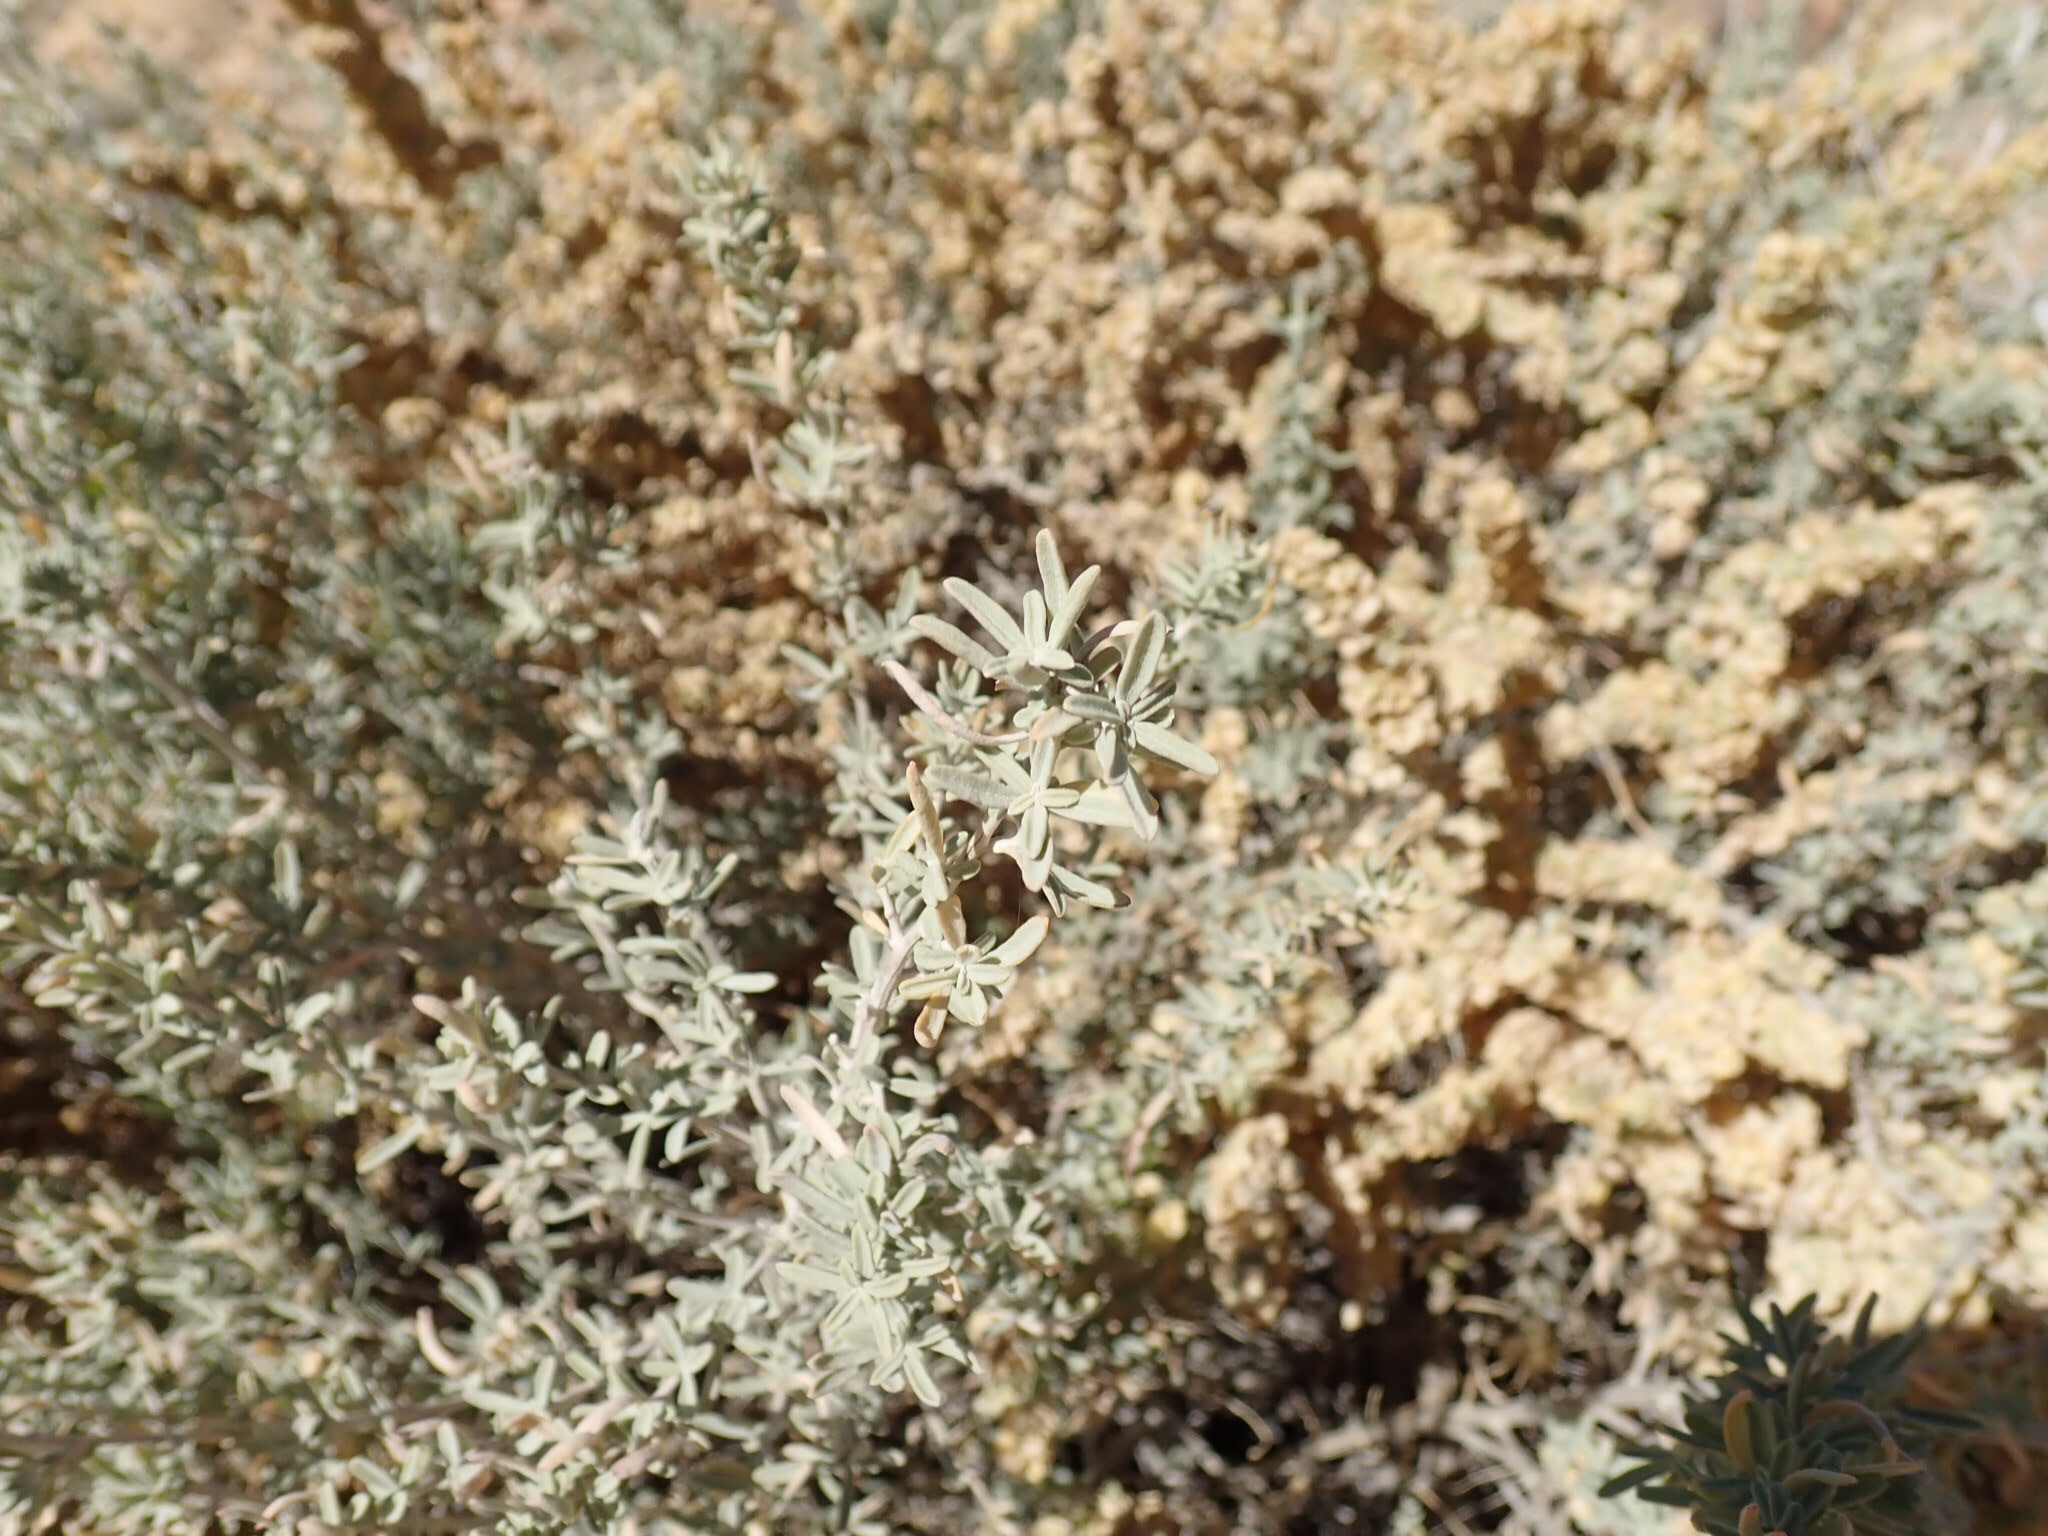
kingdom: Plantae
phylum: Tracheophyta
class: Magnoliopsida
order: Caryophyllales
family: Amaranthaceae
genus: Atriplex
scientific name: Atriplex canescens
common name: Four-wing saltbush
